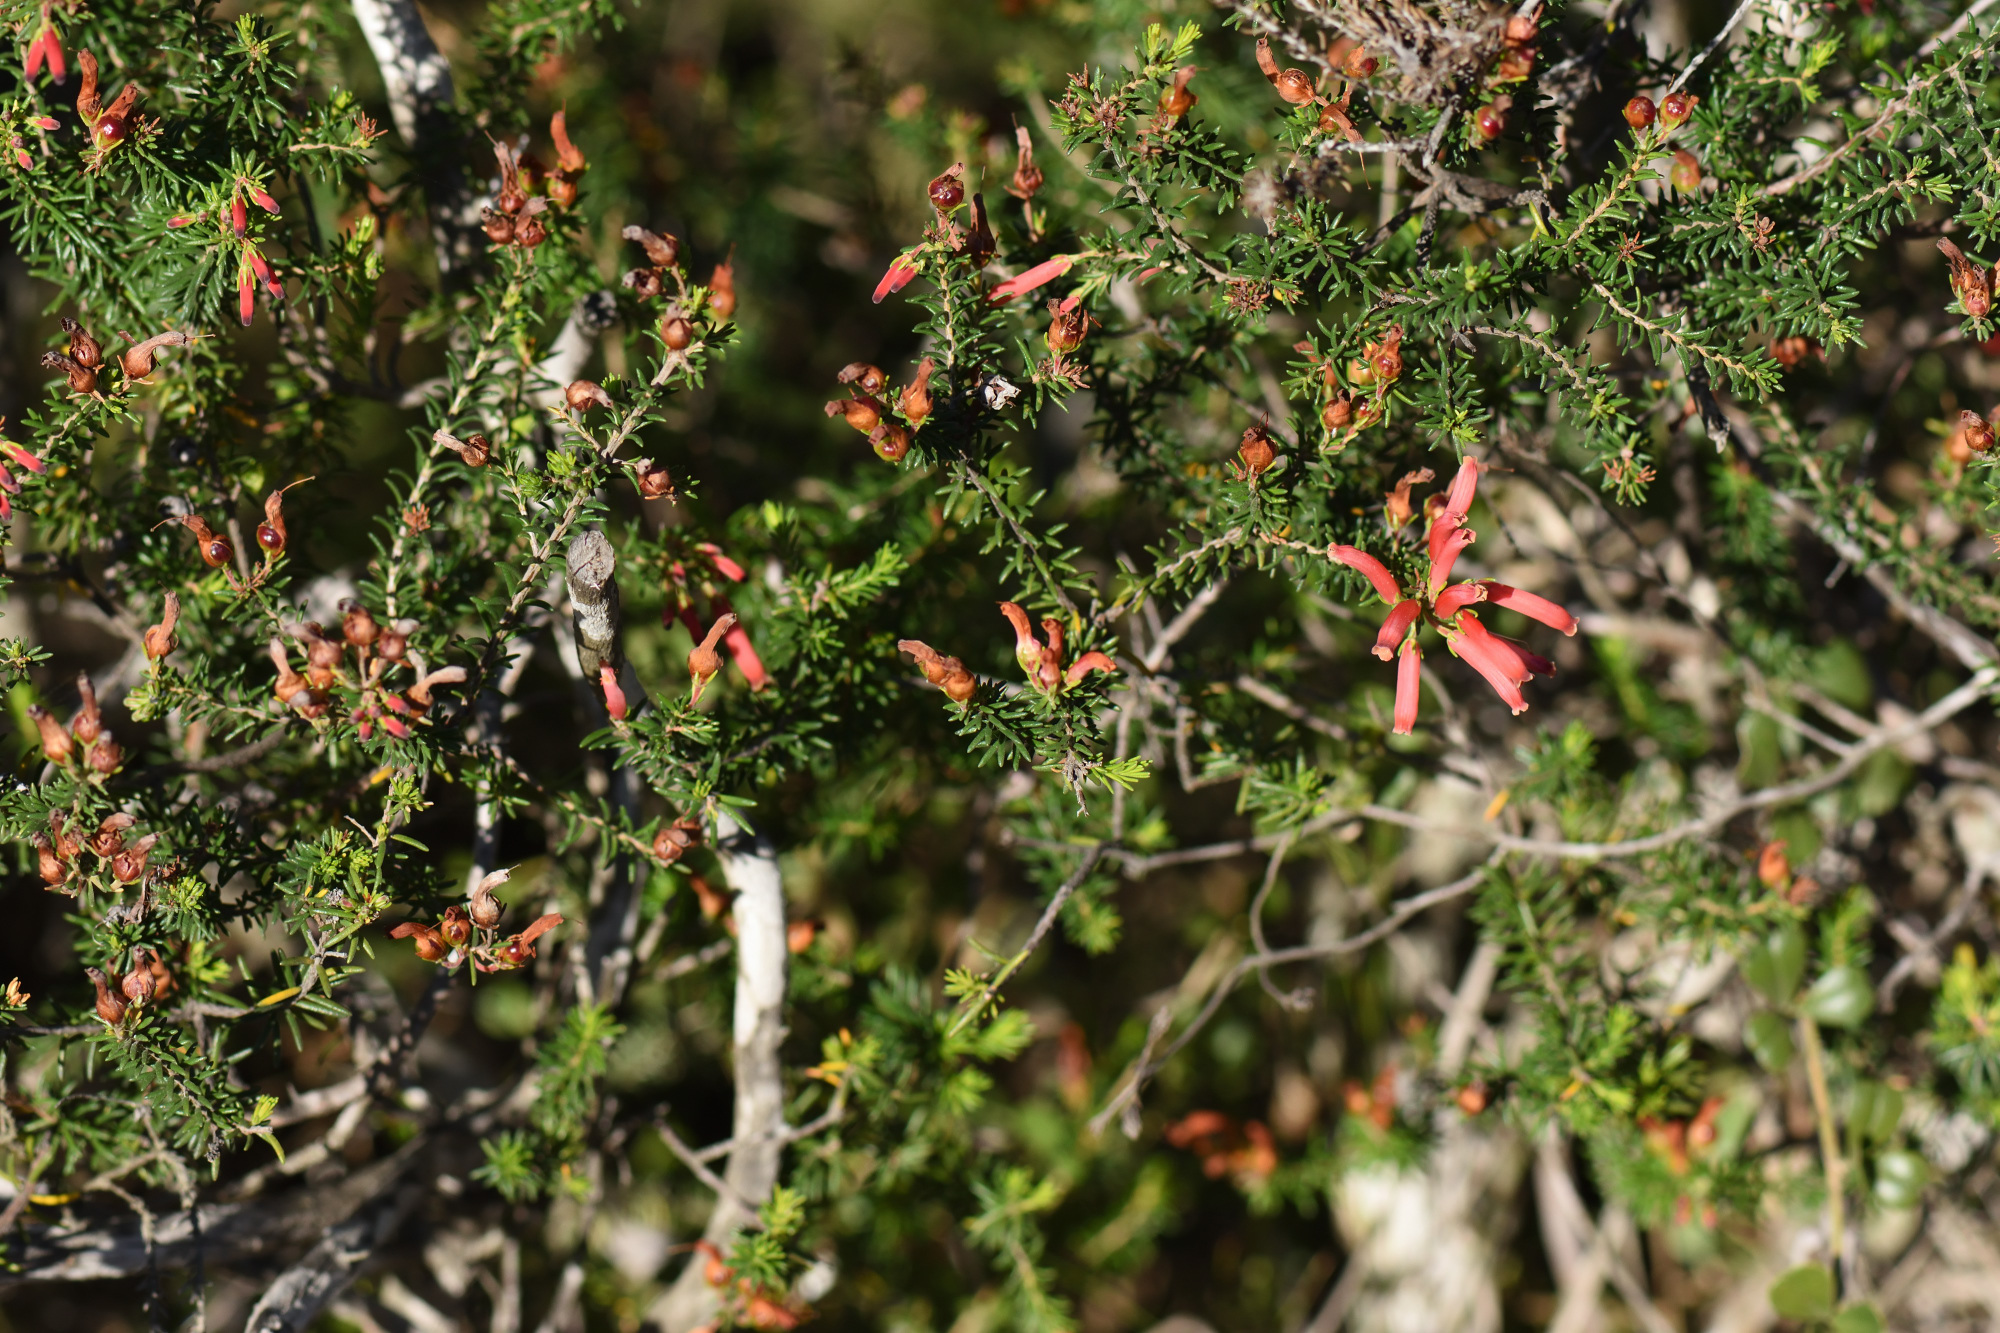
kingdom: Plantae
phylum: Tracheophyta
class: Magnoliopsida
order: Ericales
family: Ericaceae
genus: Erica
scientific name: Erica chloroloma
